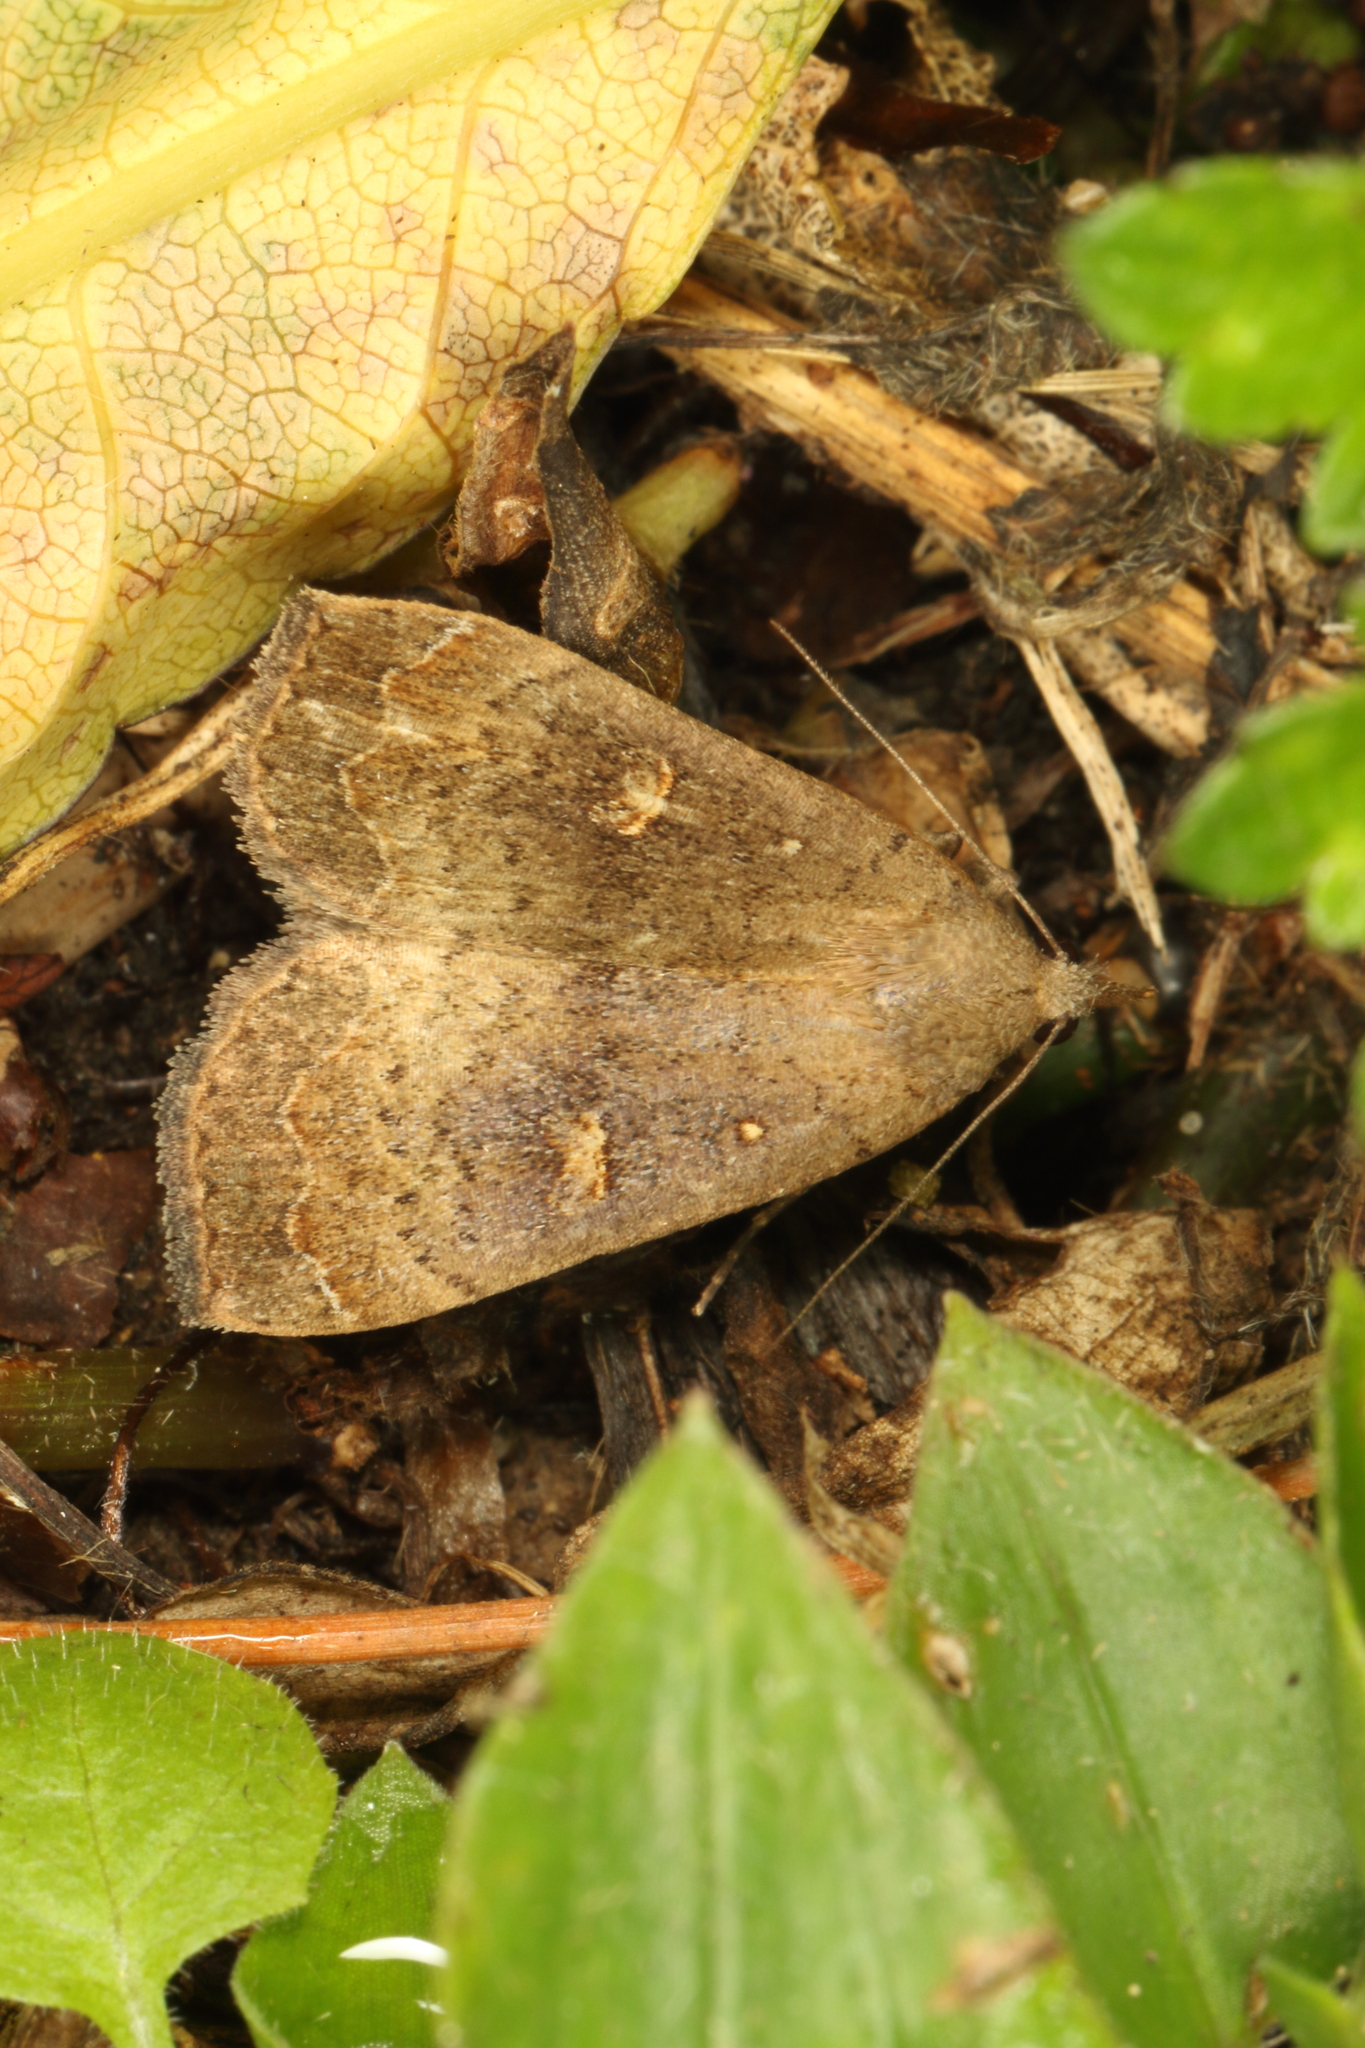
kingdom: Animalia
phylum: Arthropoda
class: Insecta
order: Lepidoptera
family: Erebidae
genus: Rhapsa
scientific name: Rhapsa scotosialis
